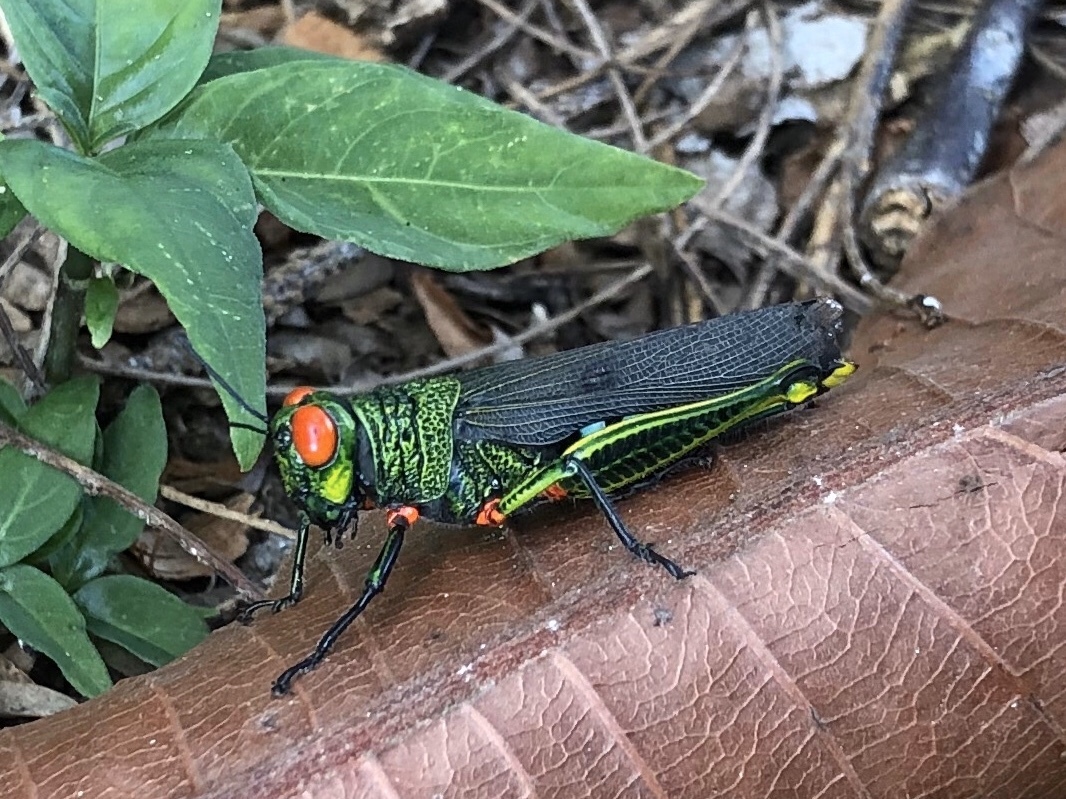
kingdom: Animalia
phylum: Arthropoda
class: Insecta
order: Orthoptera
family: Acrididae
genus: Coscineuta
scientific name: Coscineuta coxalis
